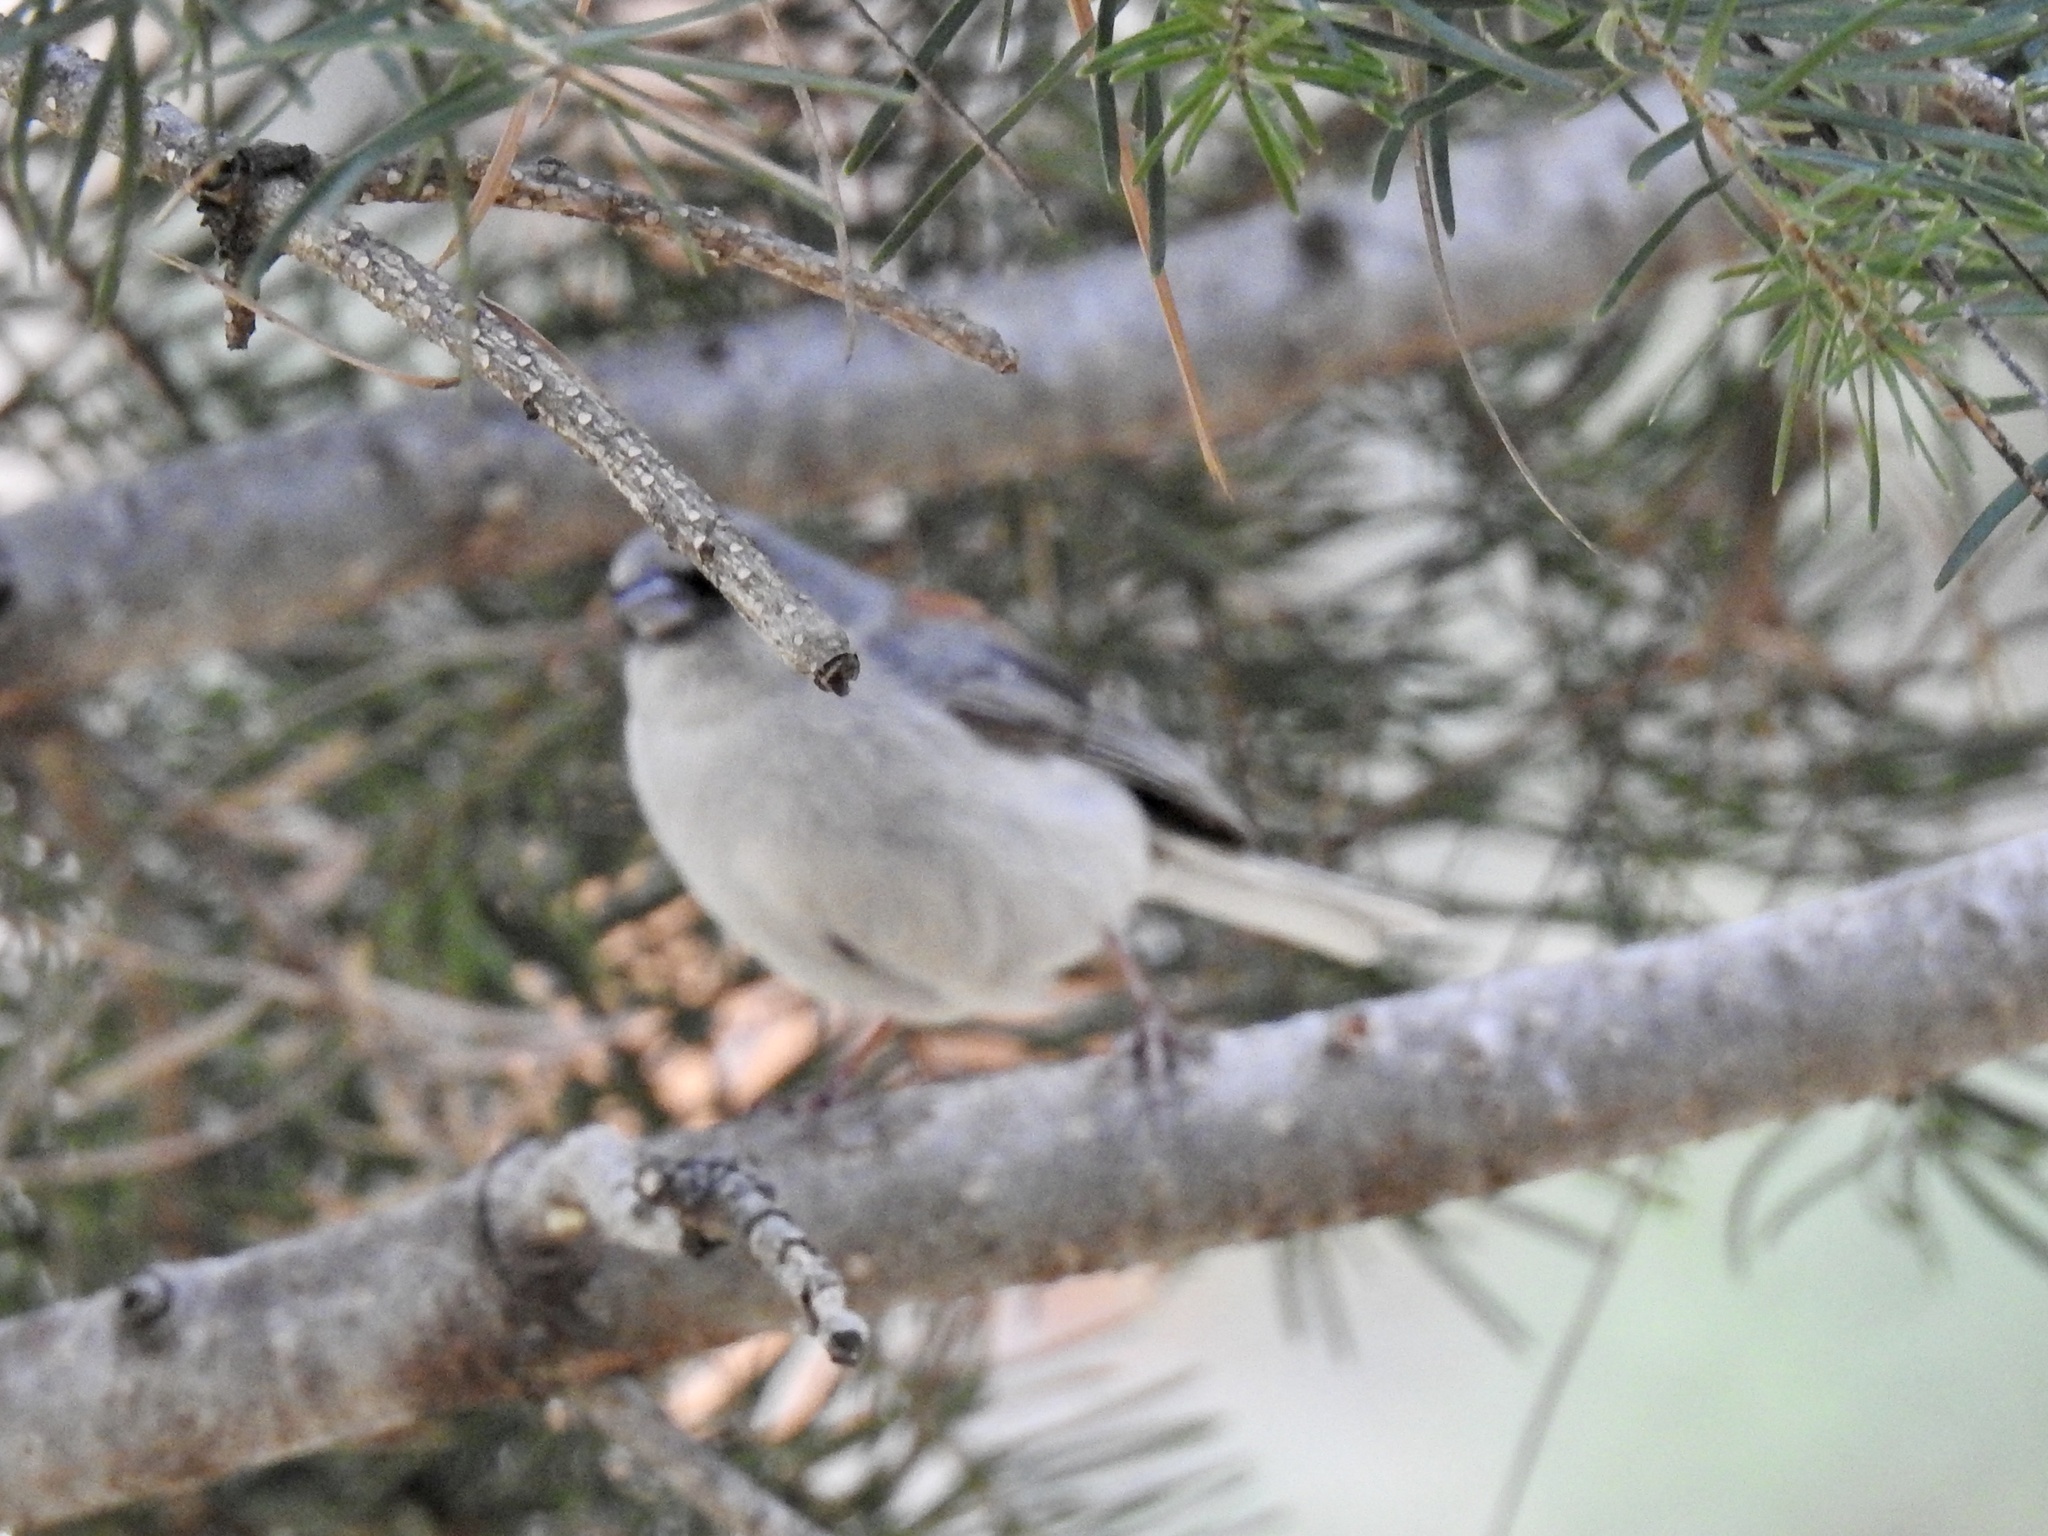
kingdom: Animalia
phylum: Chordata
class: Aves
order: Passeriformes
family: Passerellidae
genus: Junco
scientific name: Junco hyemalis
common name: Dark-eyed junco
